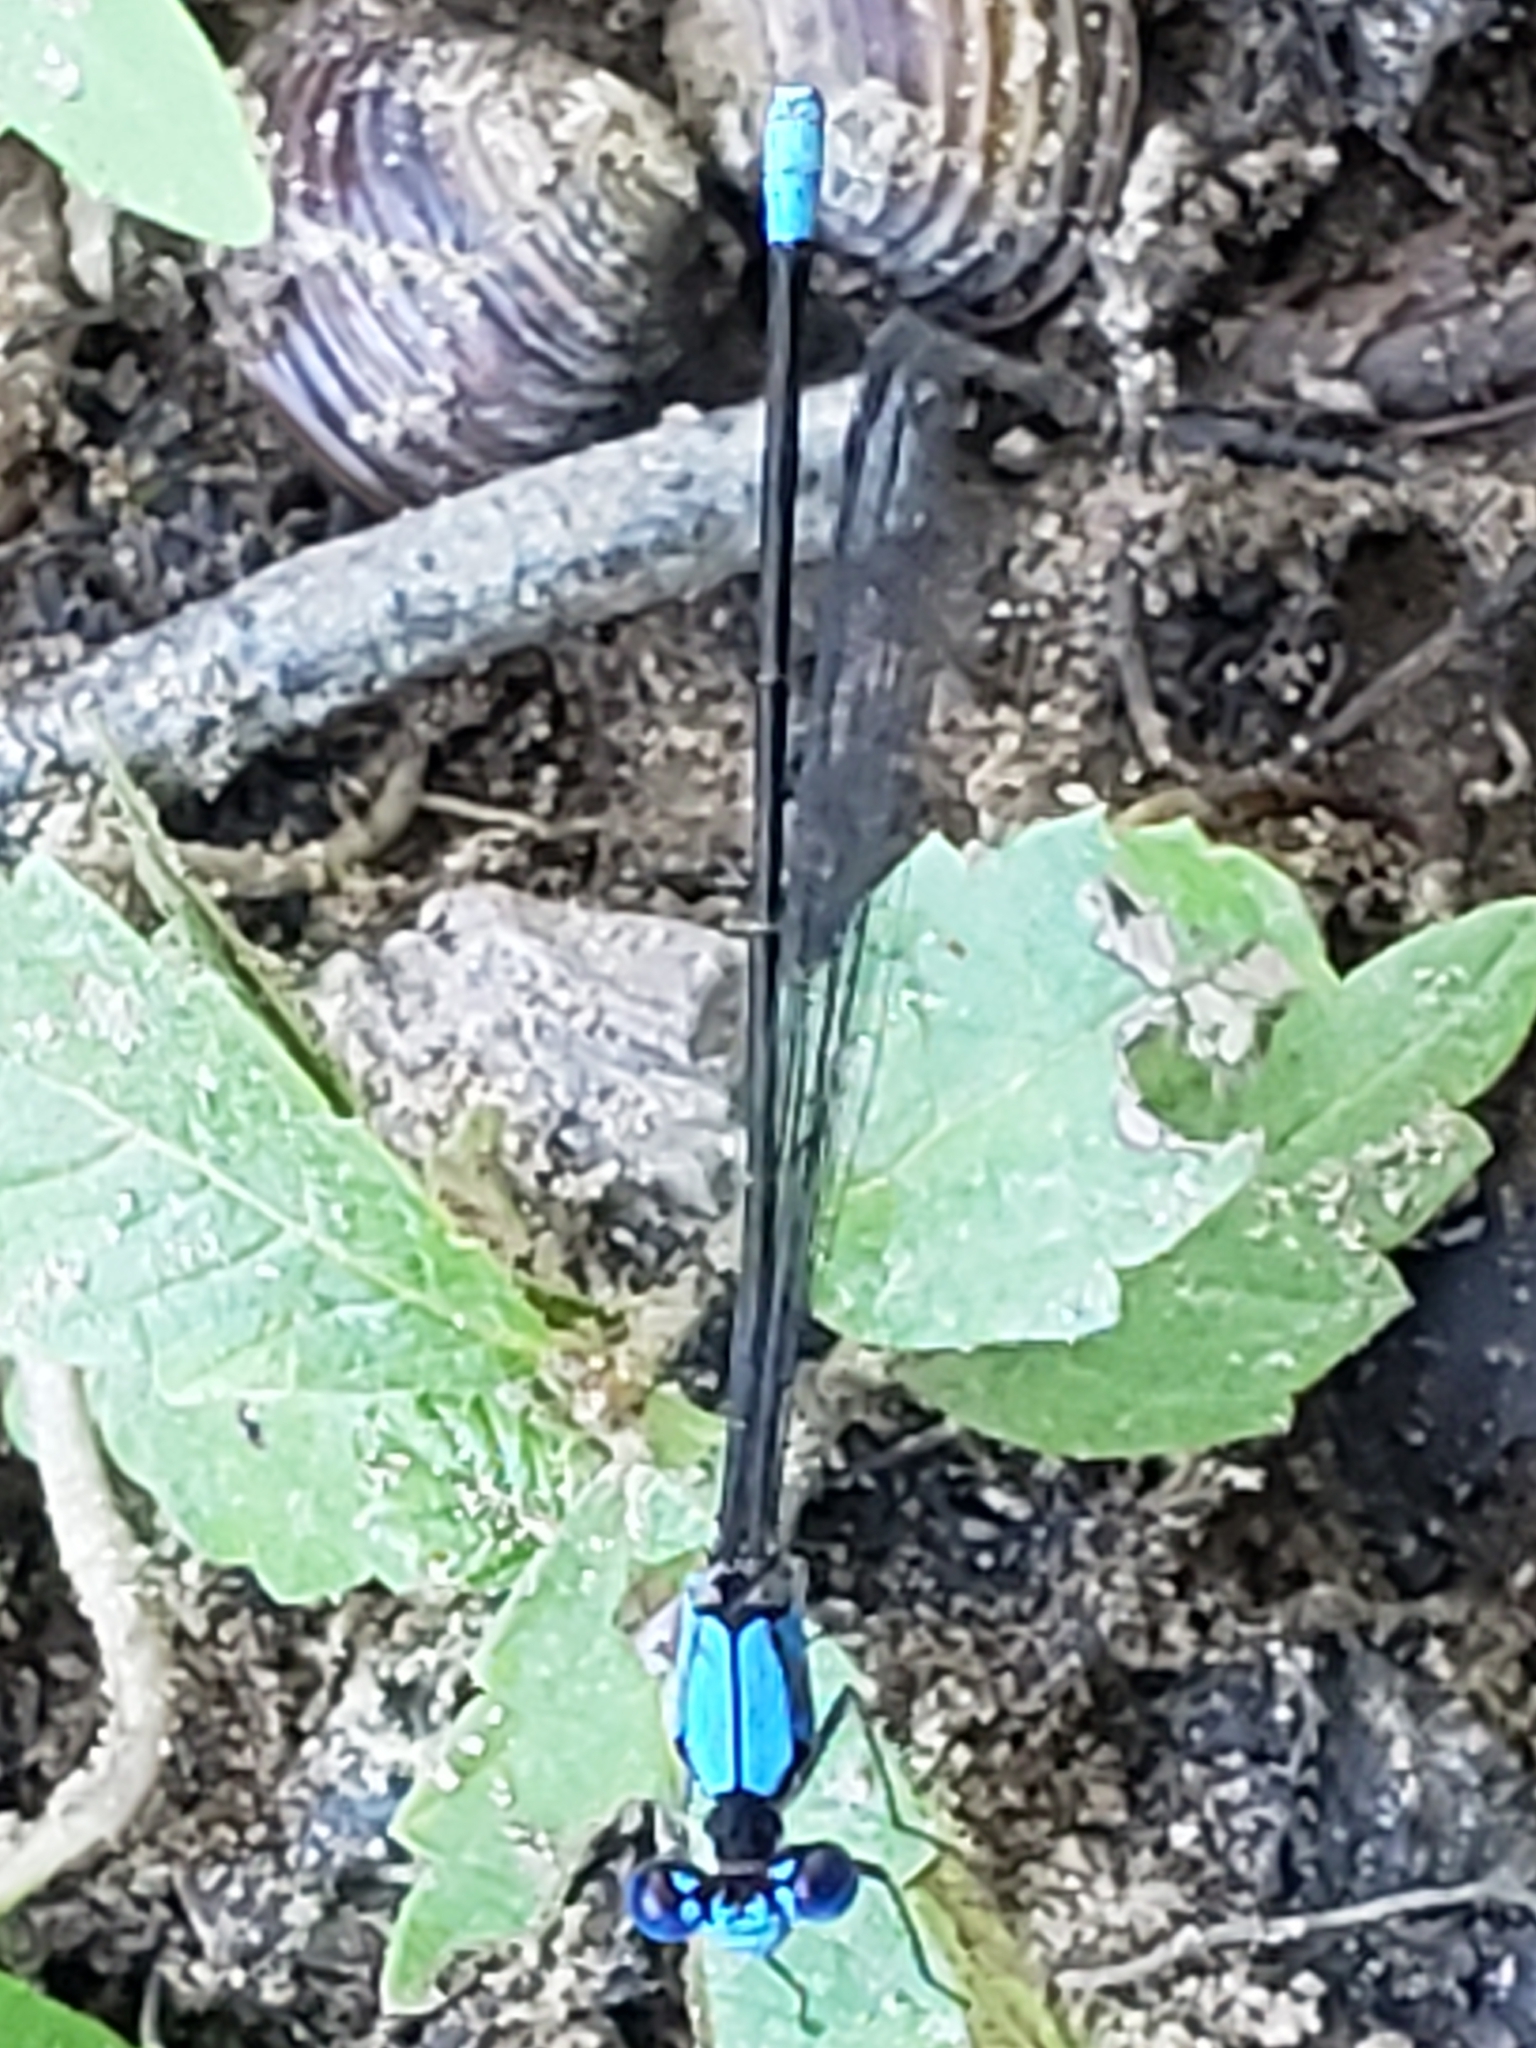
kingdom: Animalia
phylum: Arthropoda
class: Insecta
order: Odonata
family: Coenagrionidae
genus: Argia
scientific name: Argia apicalis
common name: Blue-fronted dancer
